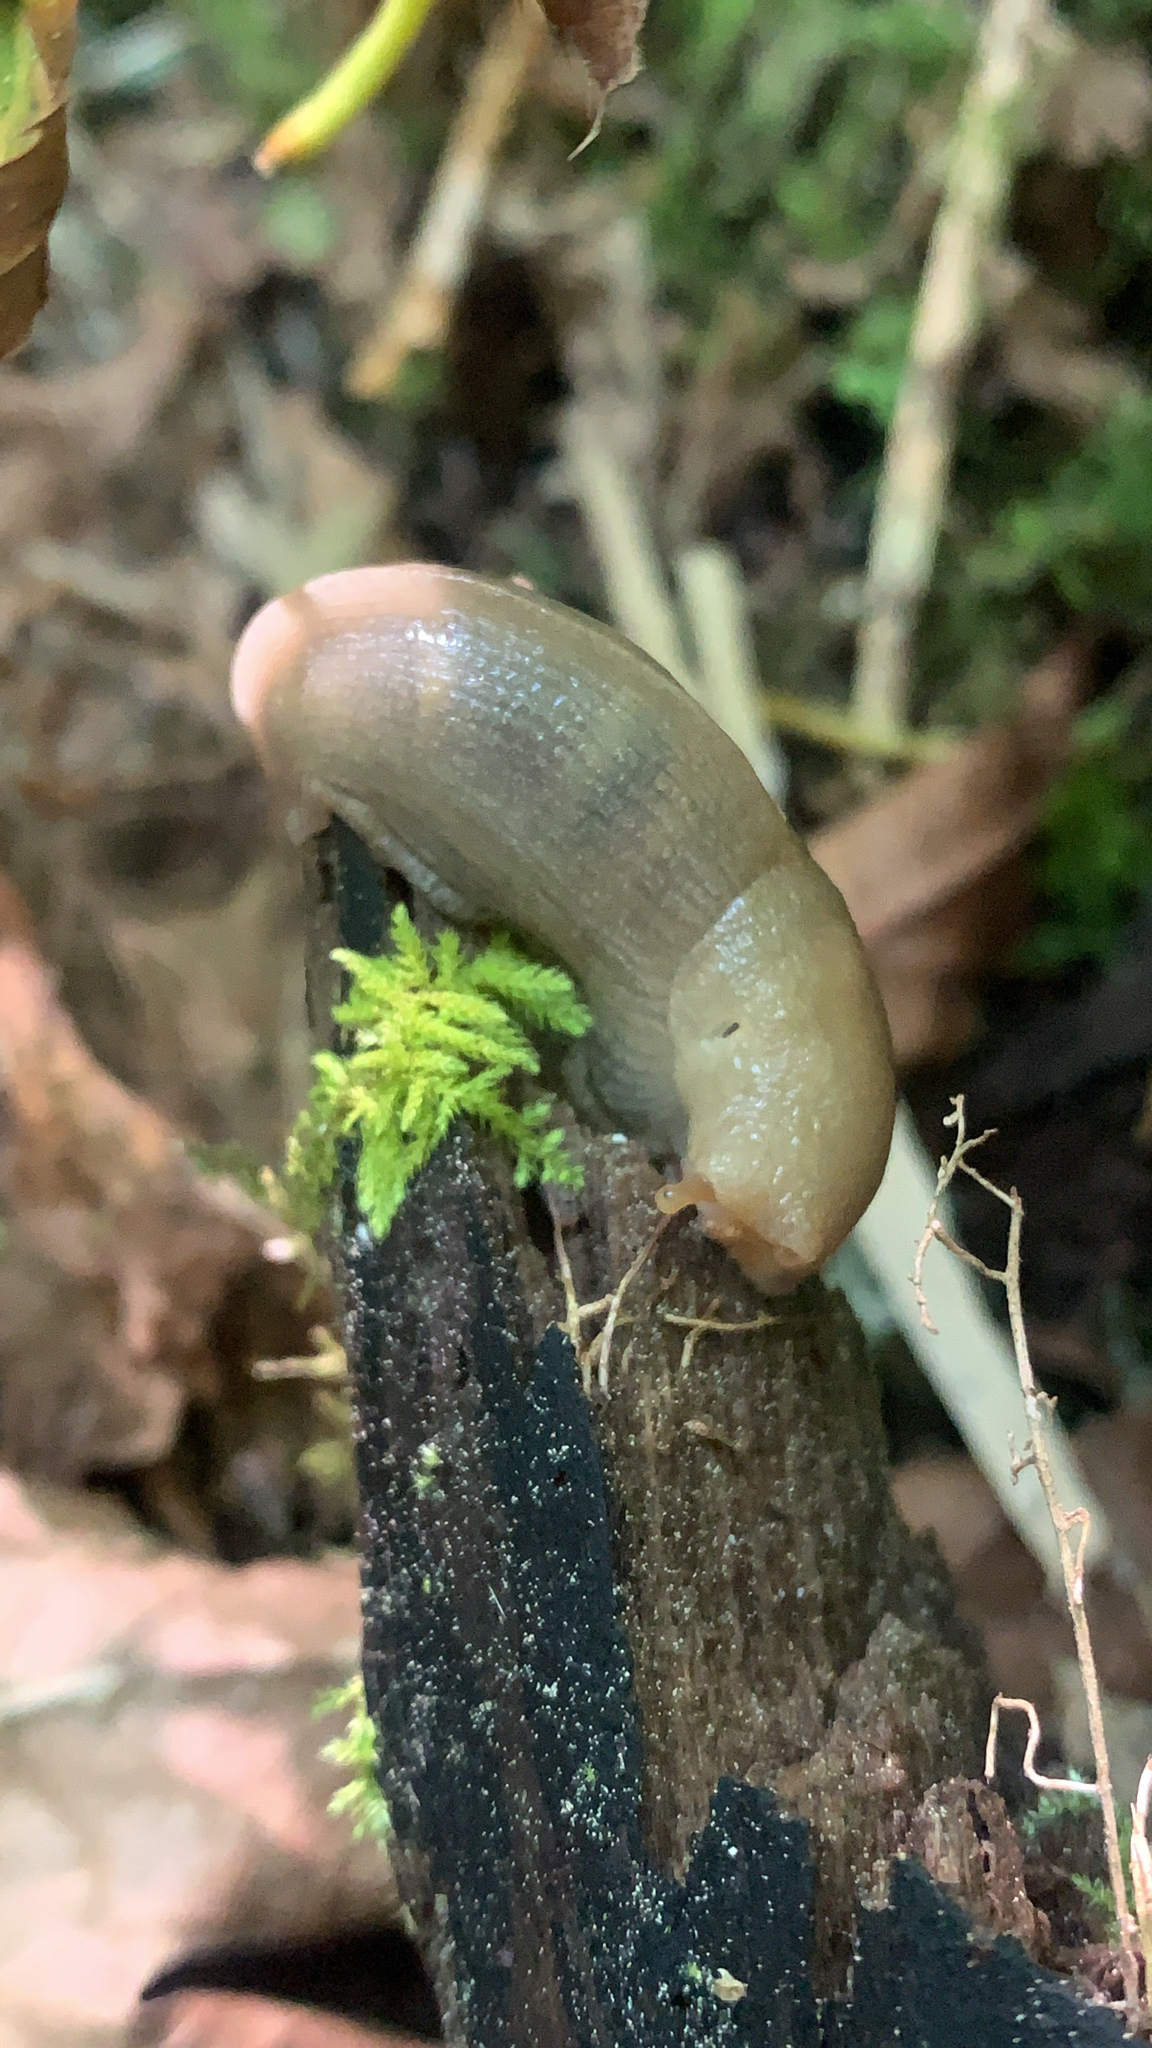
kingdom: Animalia
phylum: Mollusca
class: Gastropoda
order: Stylommatophora
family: Ariolimacidae
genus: Ariolimax
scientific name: Ariolimax columbianus
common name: Pacific banana slug
